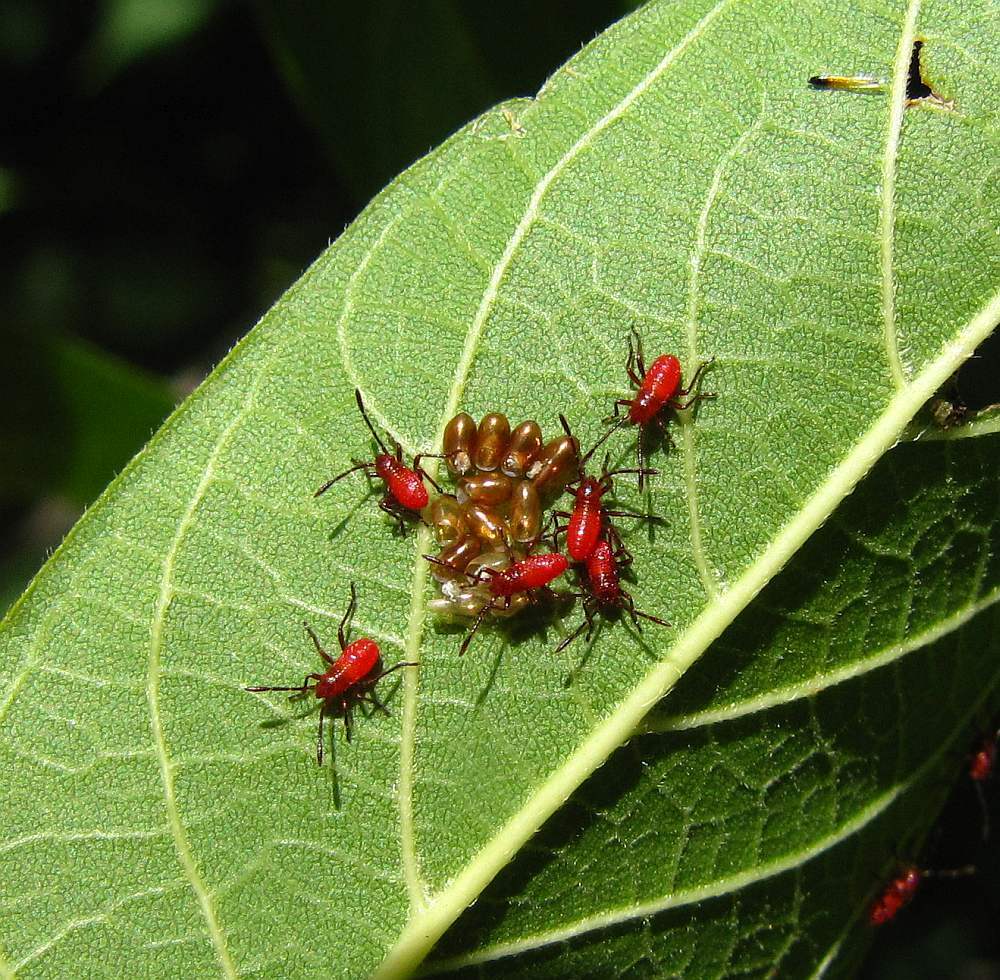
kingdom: Animalia
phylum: Arthropoda
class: Insecta
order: Hemiptera
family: Rhopalidae
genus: Boisea
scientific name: Boisea trivittata
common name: Boxelder bug
